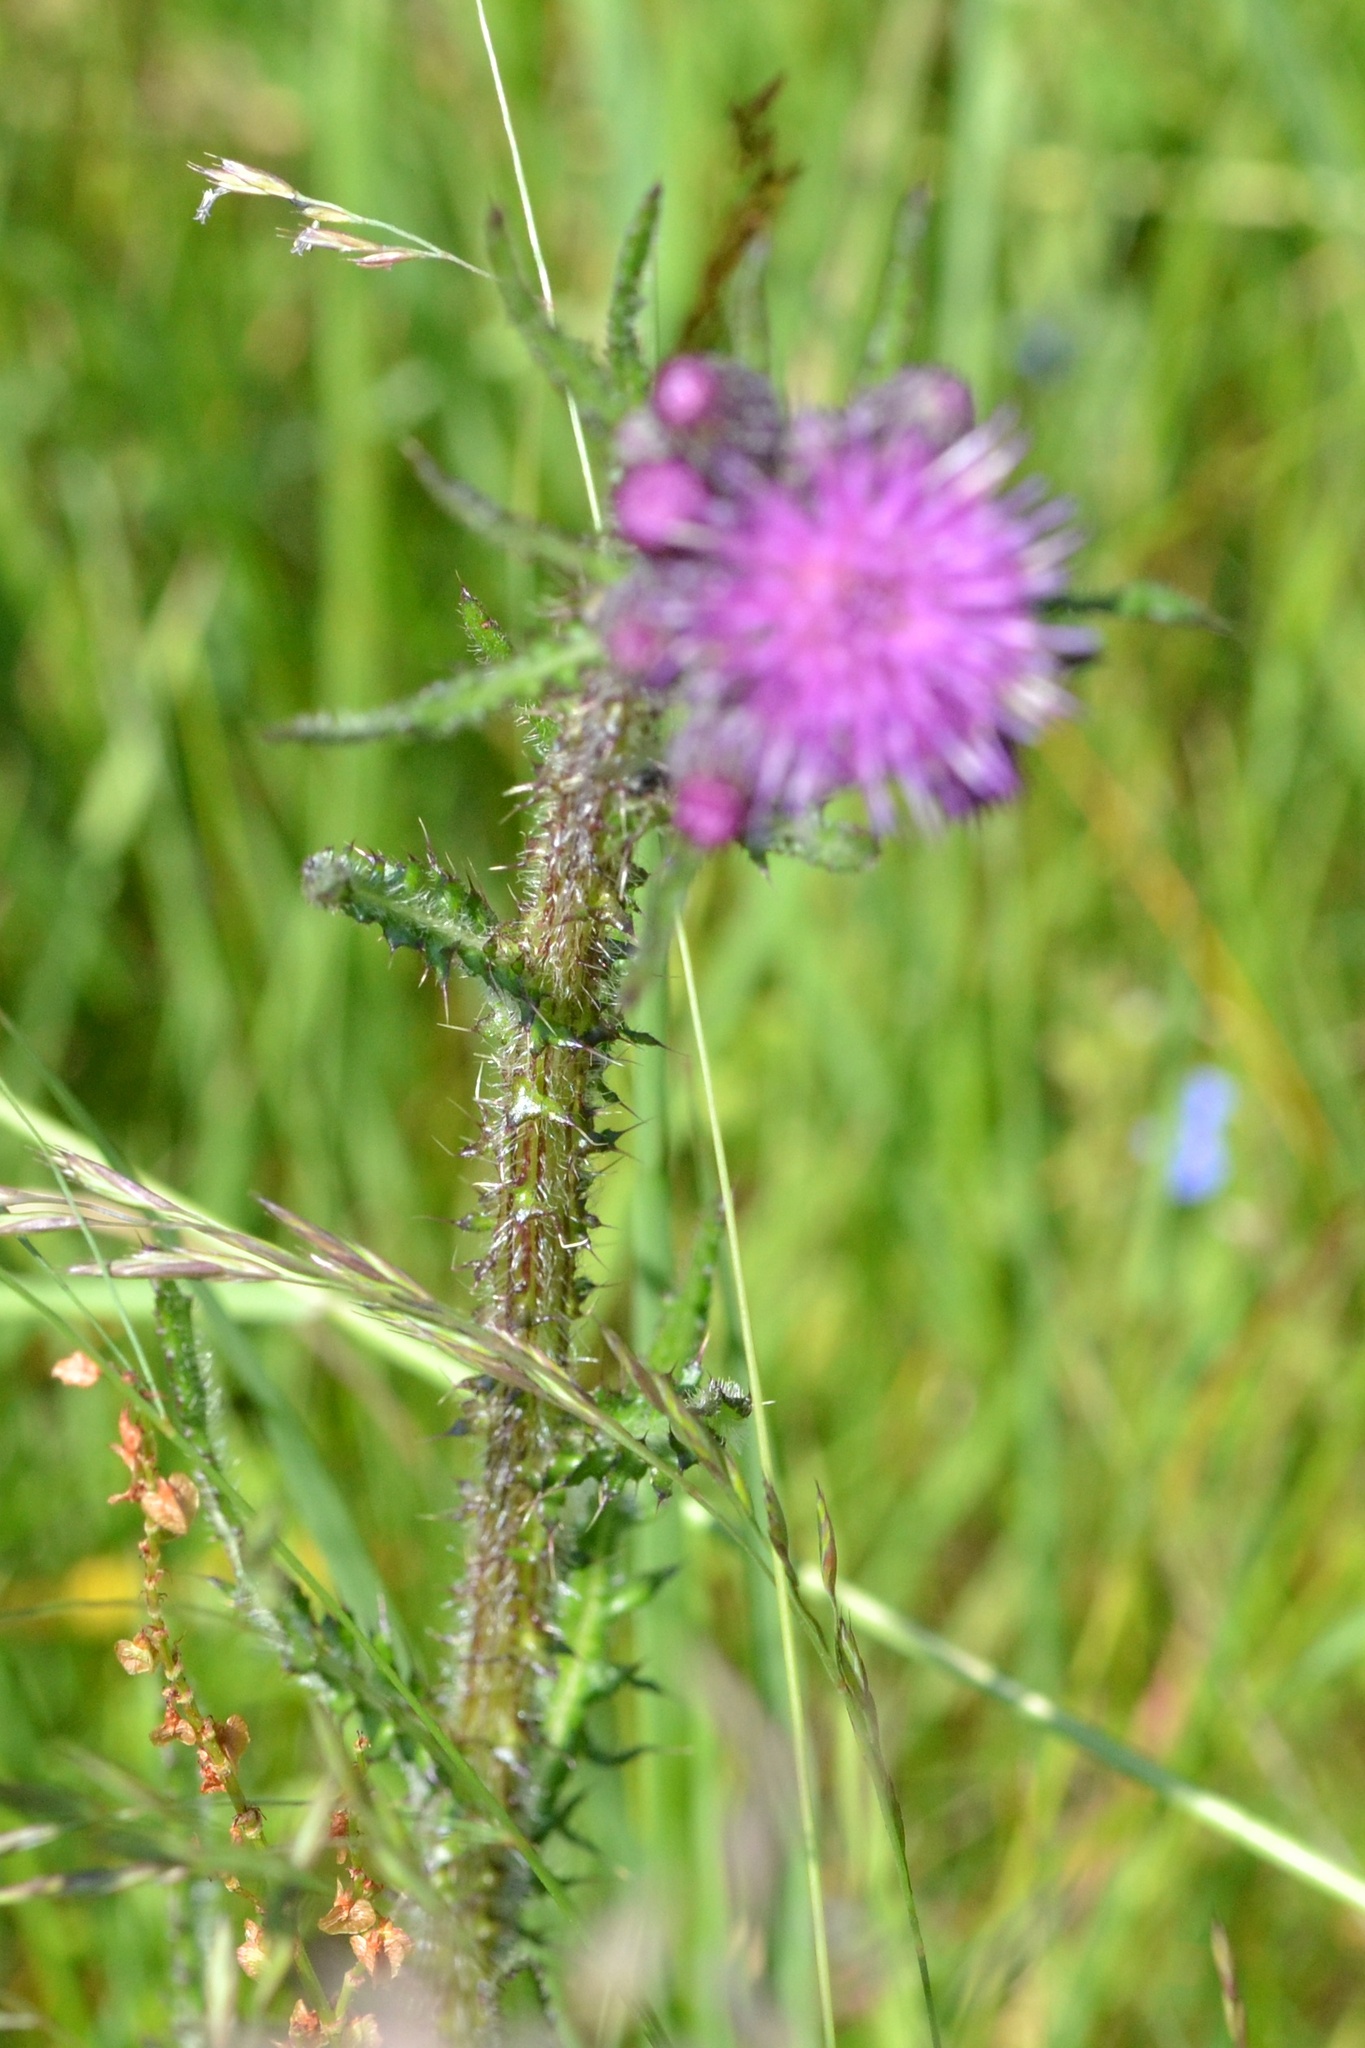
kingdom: Plantae
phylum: Tracheophyta
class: Magnoliopsida
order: Asterales
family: Asteraceae
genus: Cirsium
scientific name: Cirsium palustre
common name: Marsh thistle
